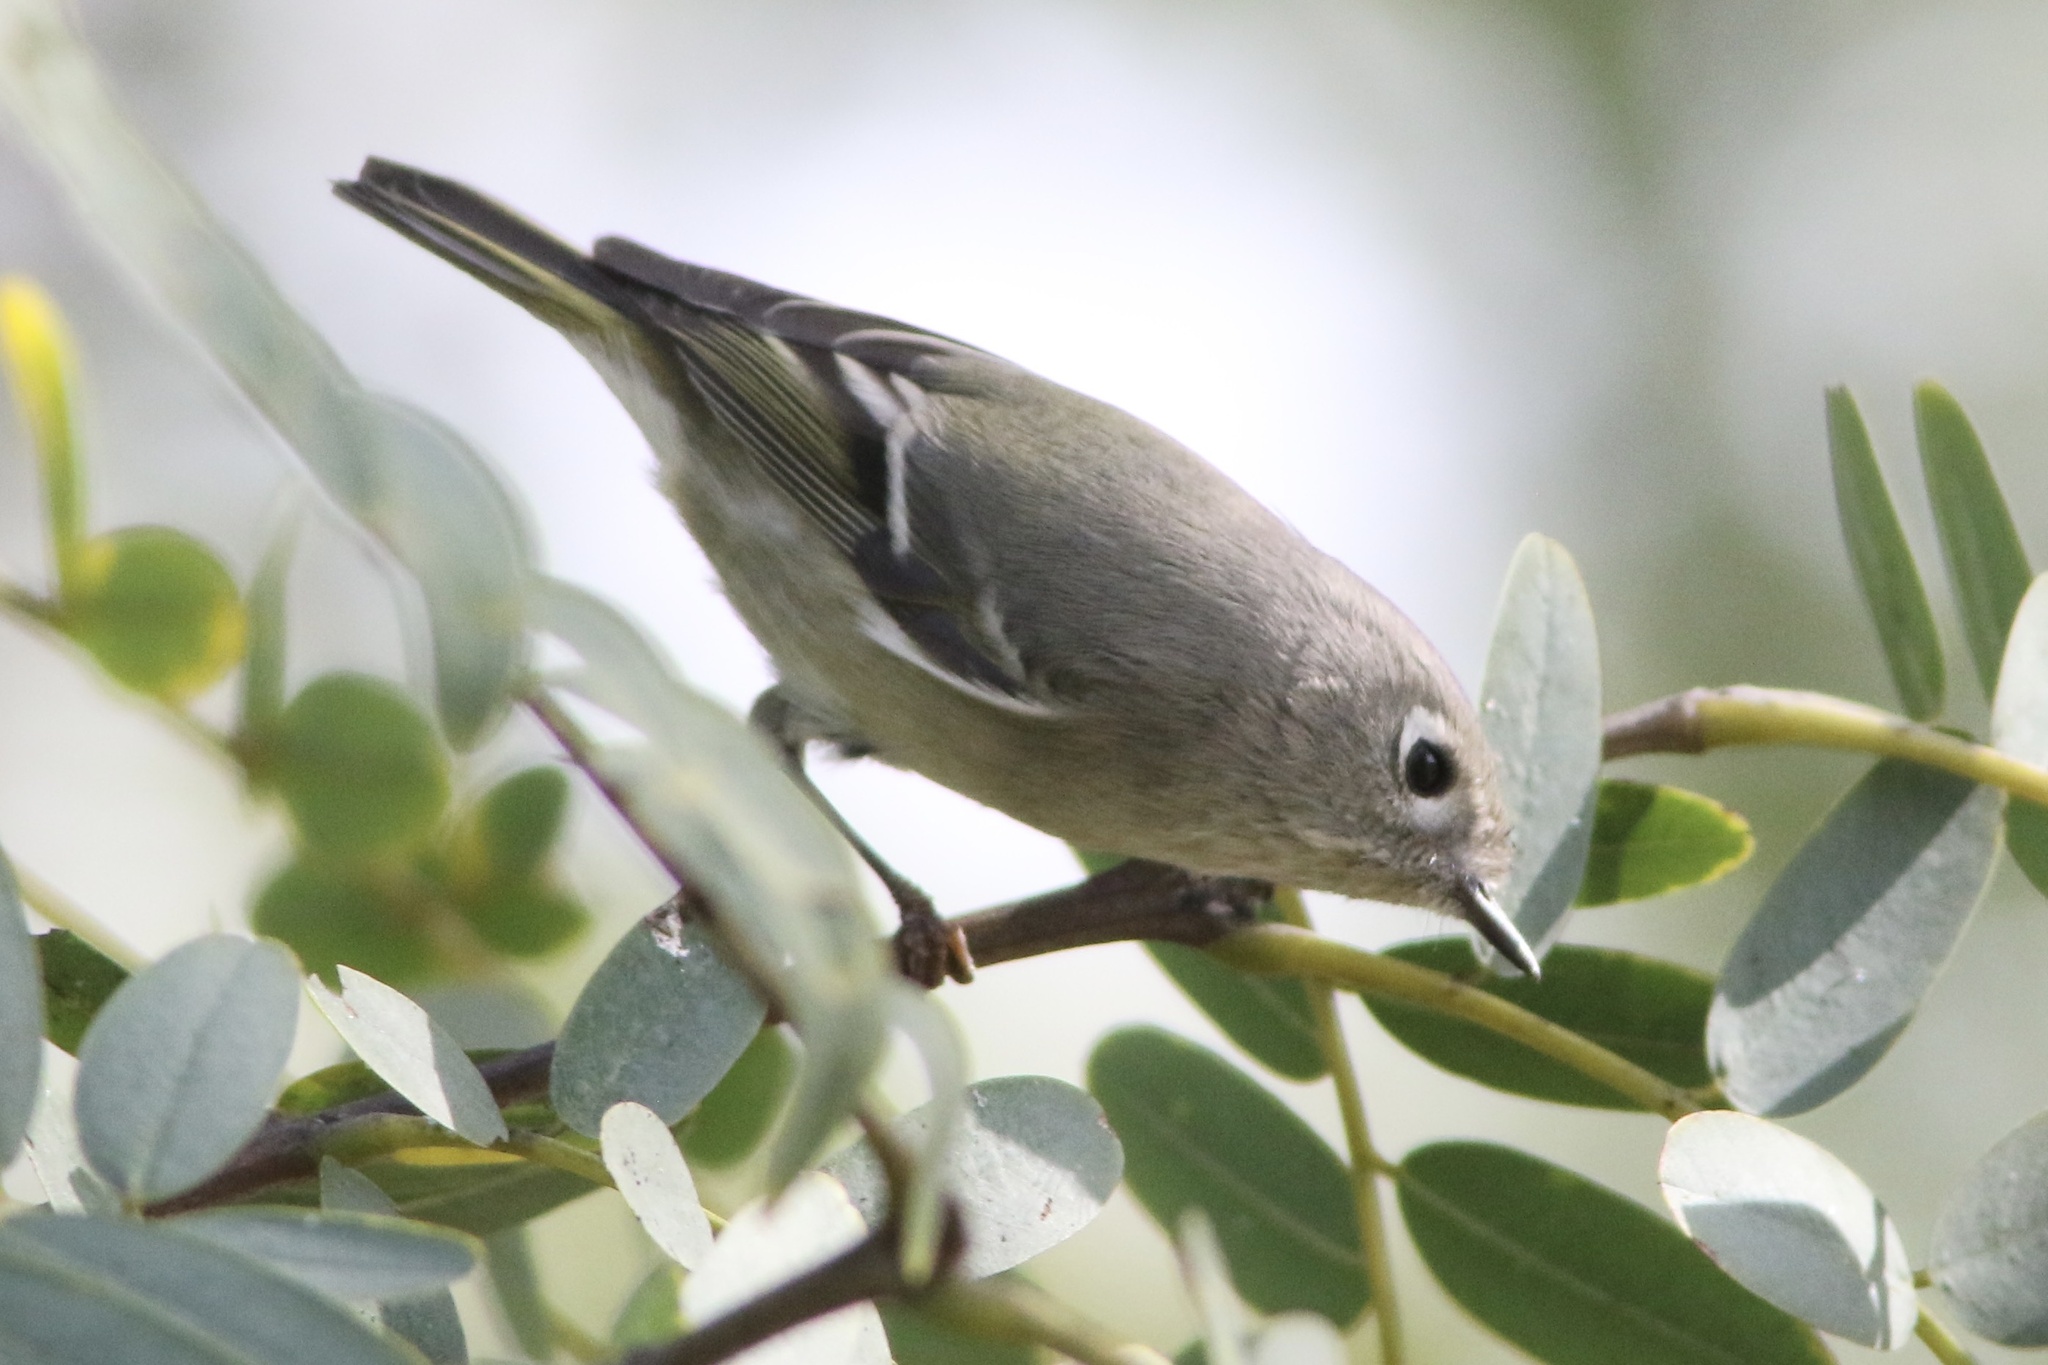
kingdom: Animalia
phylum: Chordata
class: Aves
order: Passeriformes
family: Regulidae
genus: Regulus
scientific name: Regulus calendula
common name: Ruby-crowned kinglet
